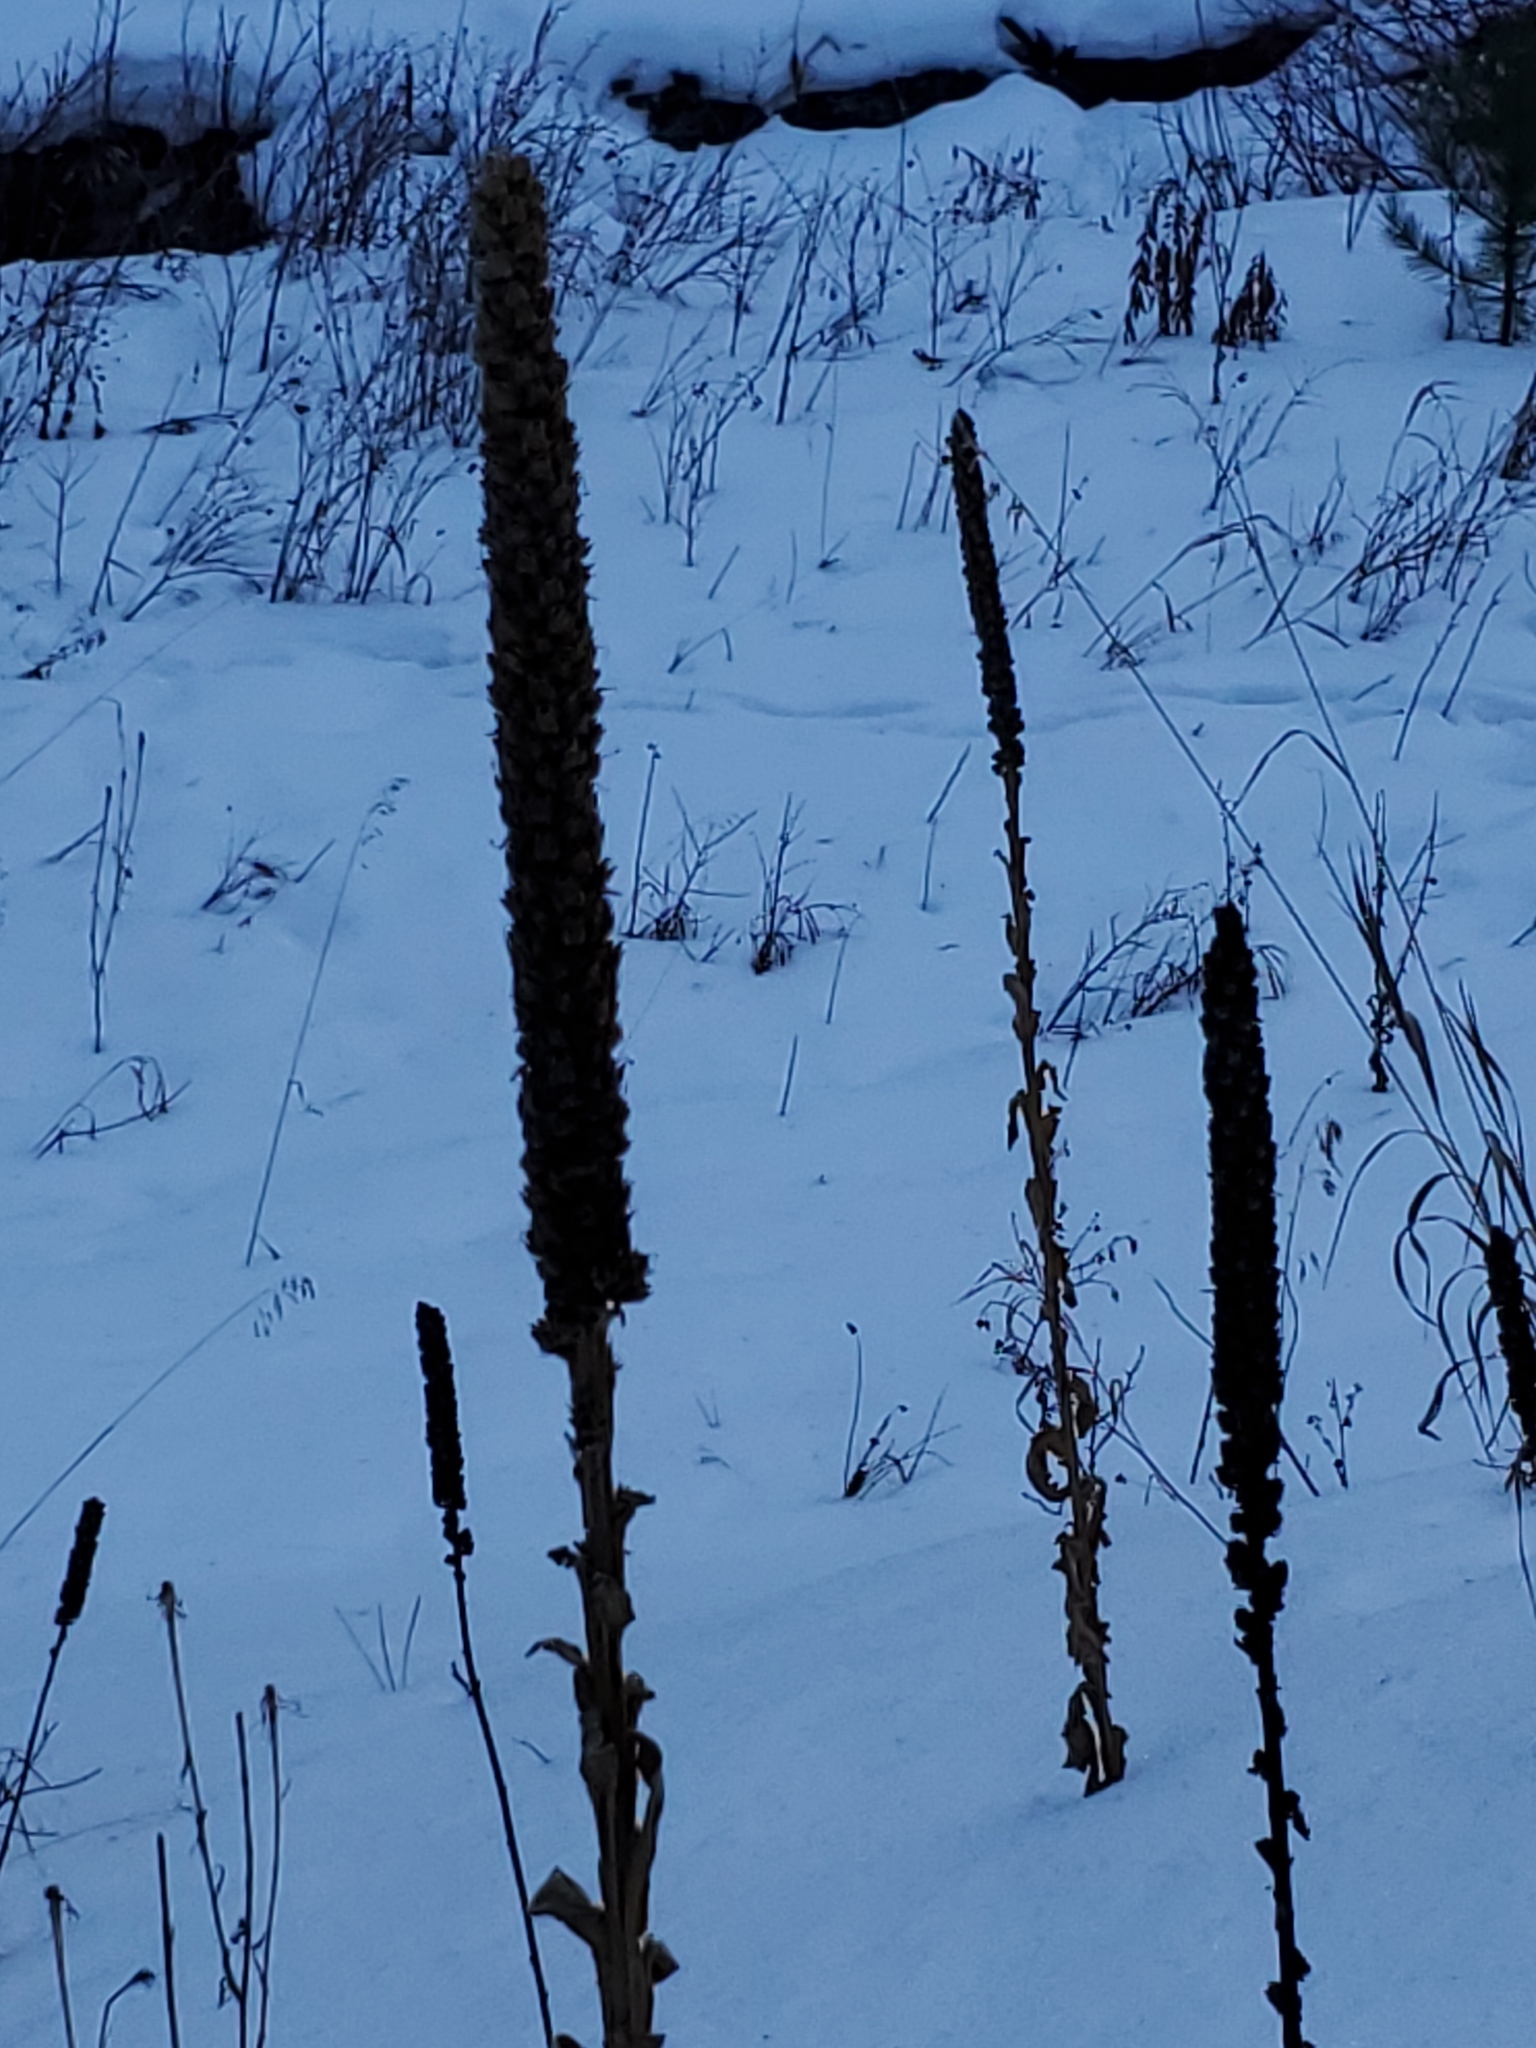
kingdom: Plantae
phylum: Tracheophyta
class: Magnoliopsida
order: Lamiales
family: Scrophulariaceae
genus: Verbascum
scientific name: Verbascum thapsus
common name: Common mullein
